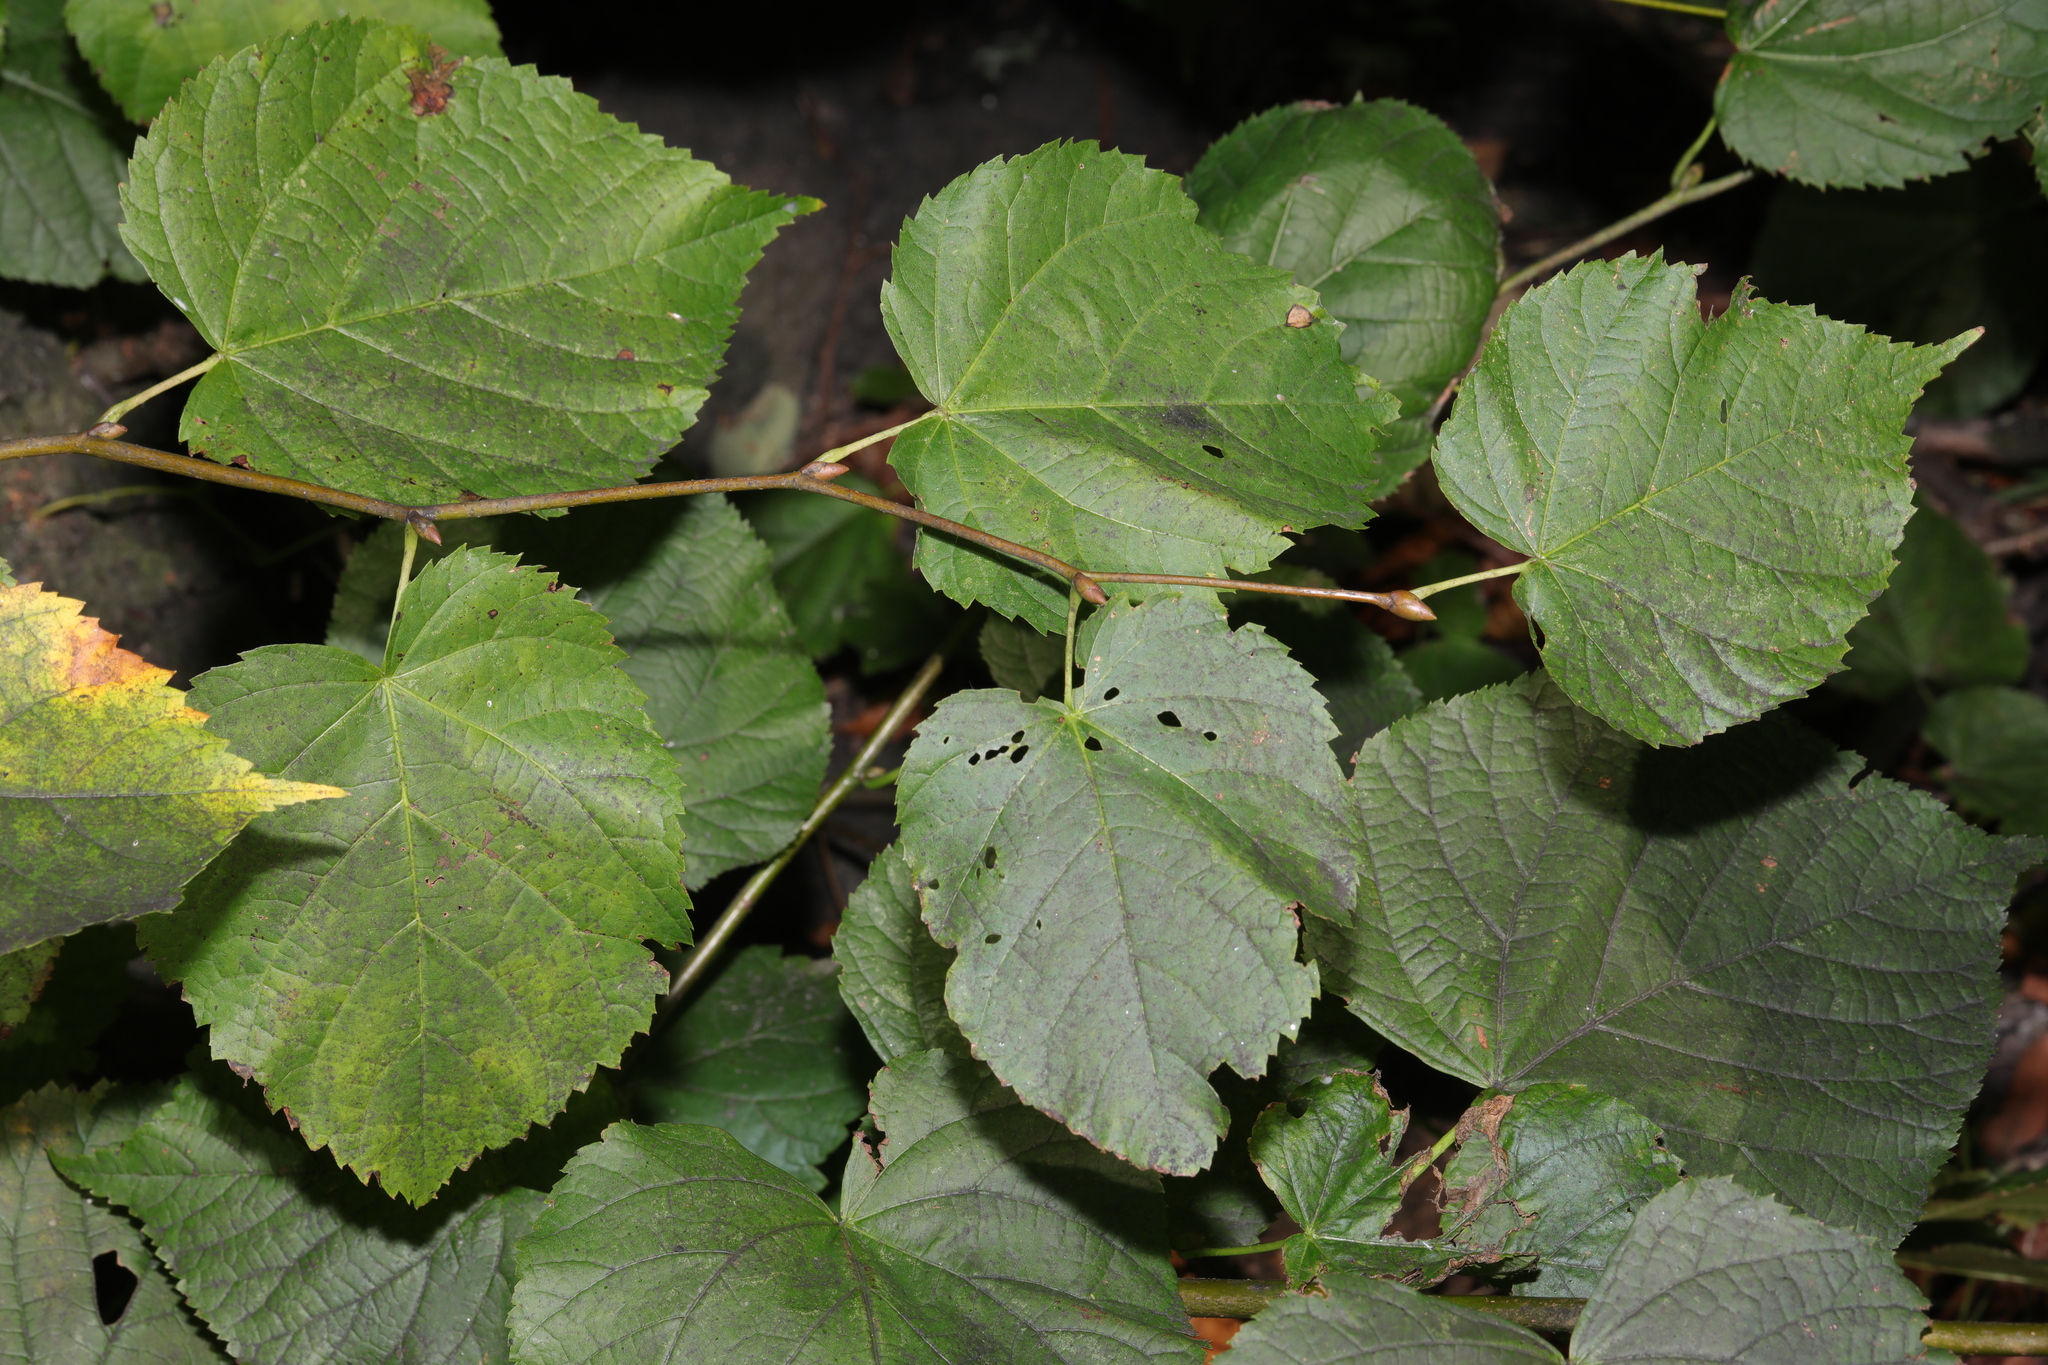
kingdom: Plantae
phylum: Tracheophyta
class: Magnoliopsida
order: Malvales
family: Malvaceae
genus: Tilia
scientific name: Tilia europaea
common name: European linden
